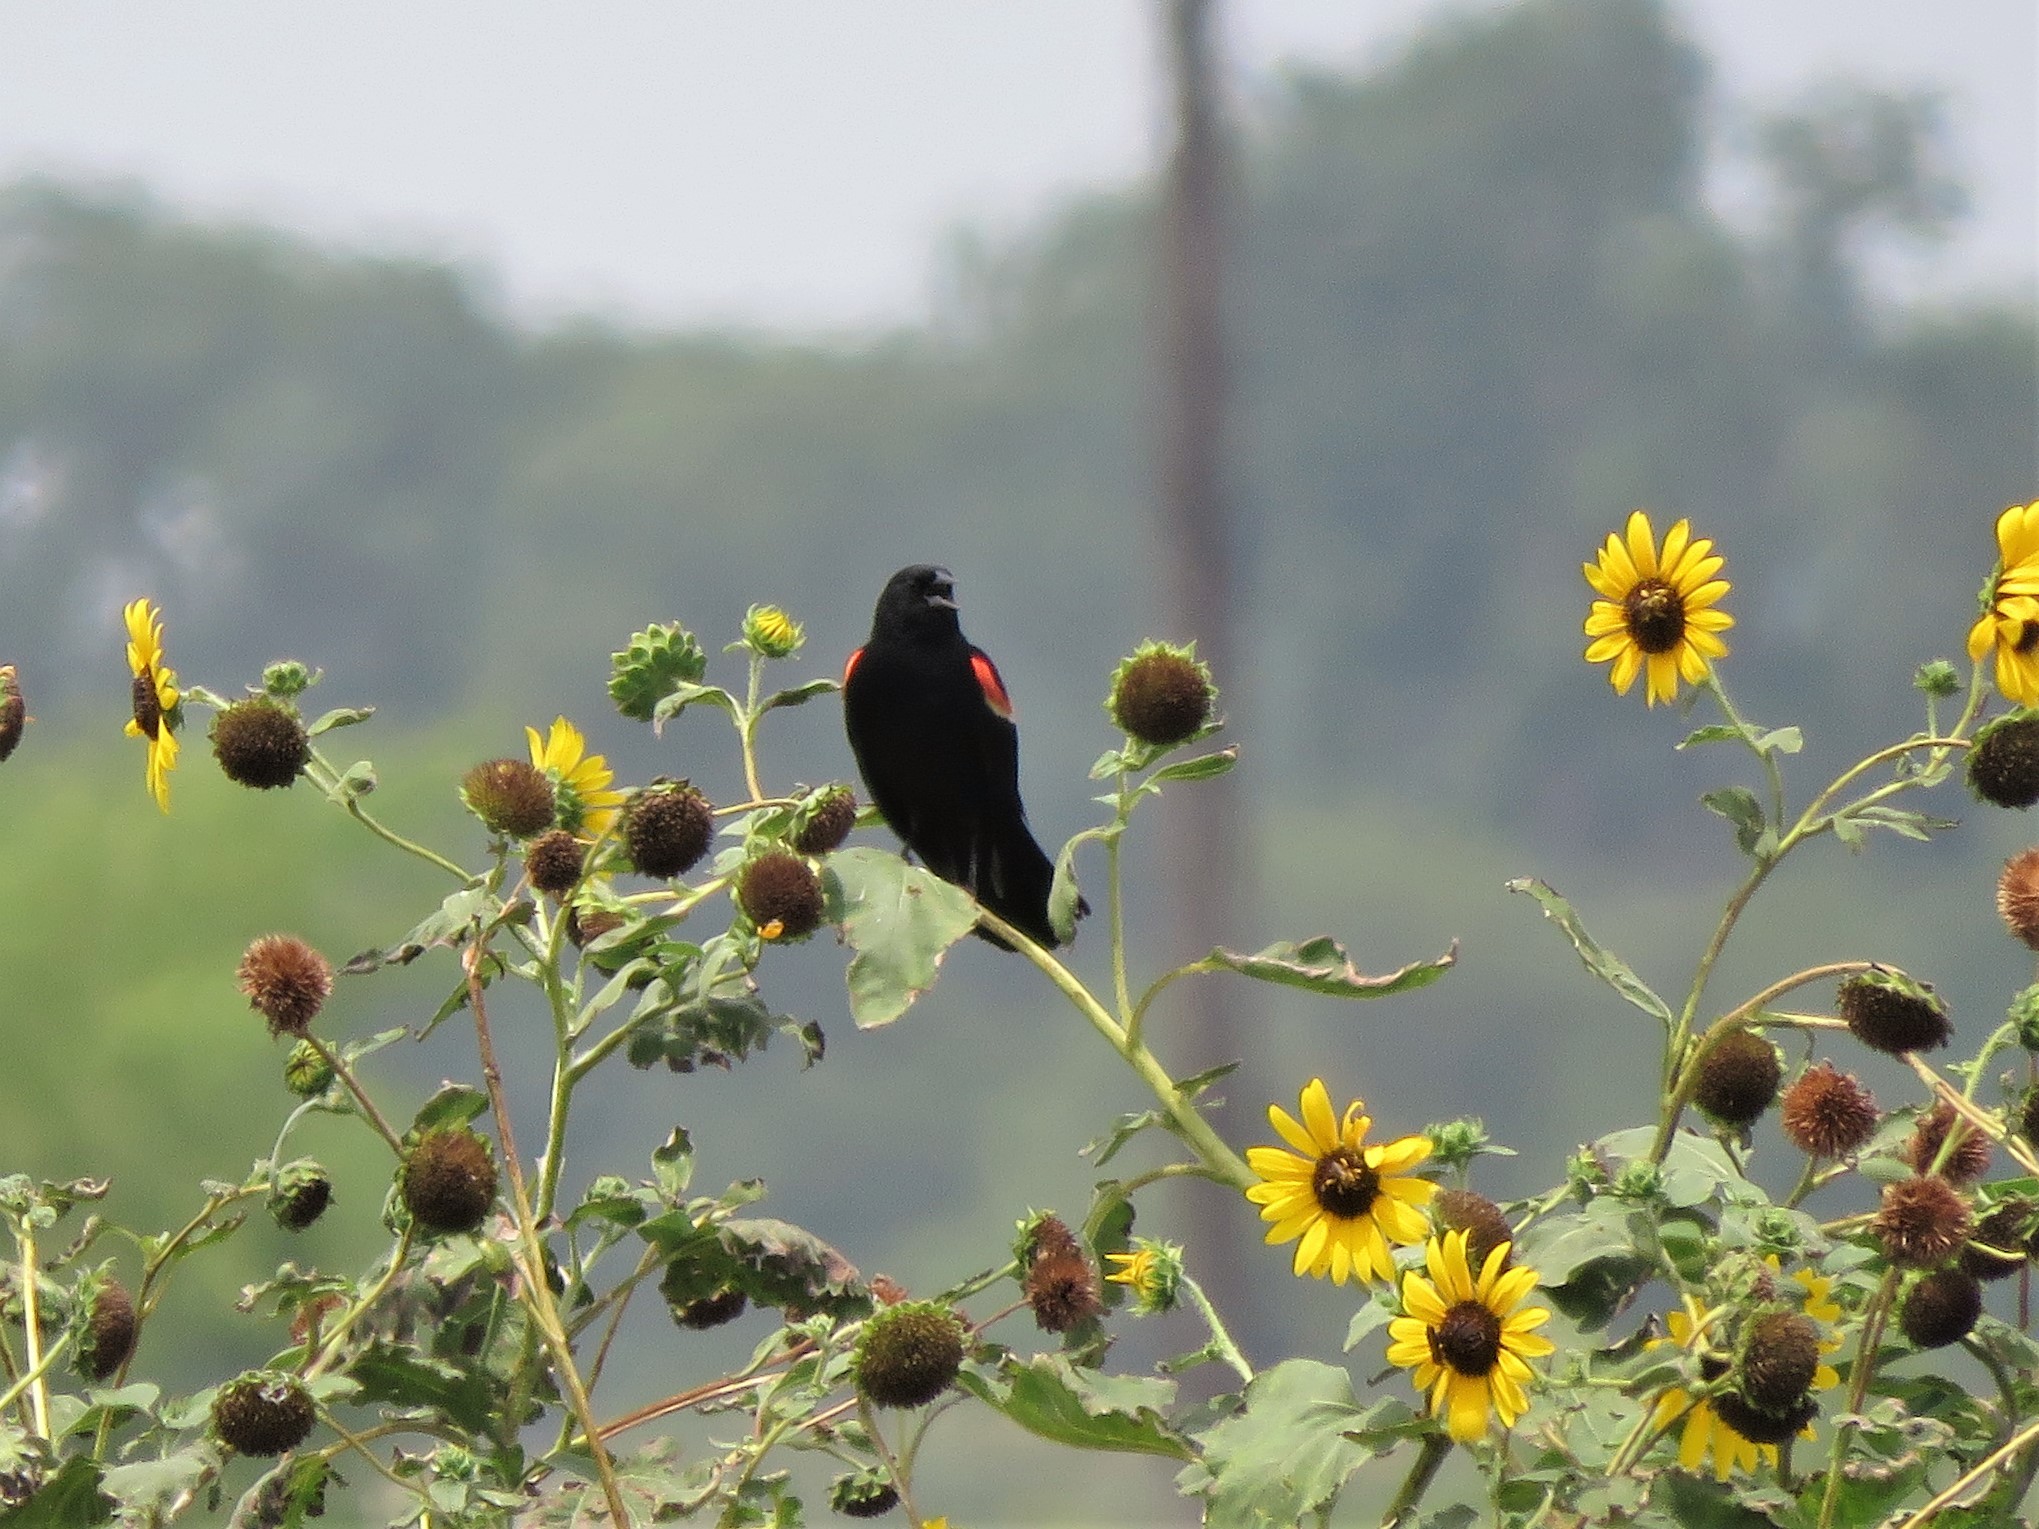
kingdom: Animalia
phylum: Chordata
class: Aves
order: Passeriformes
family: Icteridae
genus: Agelaius
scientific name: Agelaius phoeniceus
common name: Red-winged blackbird
